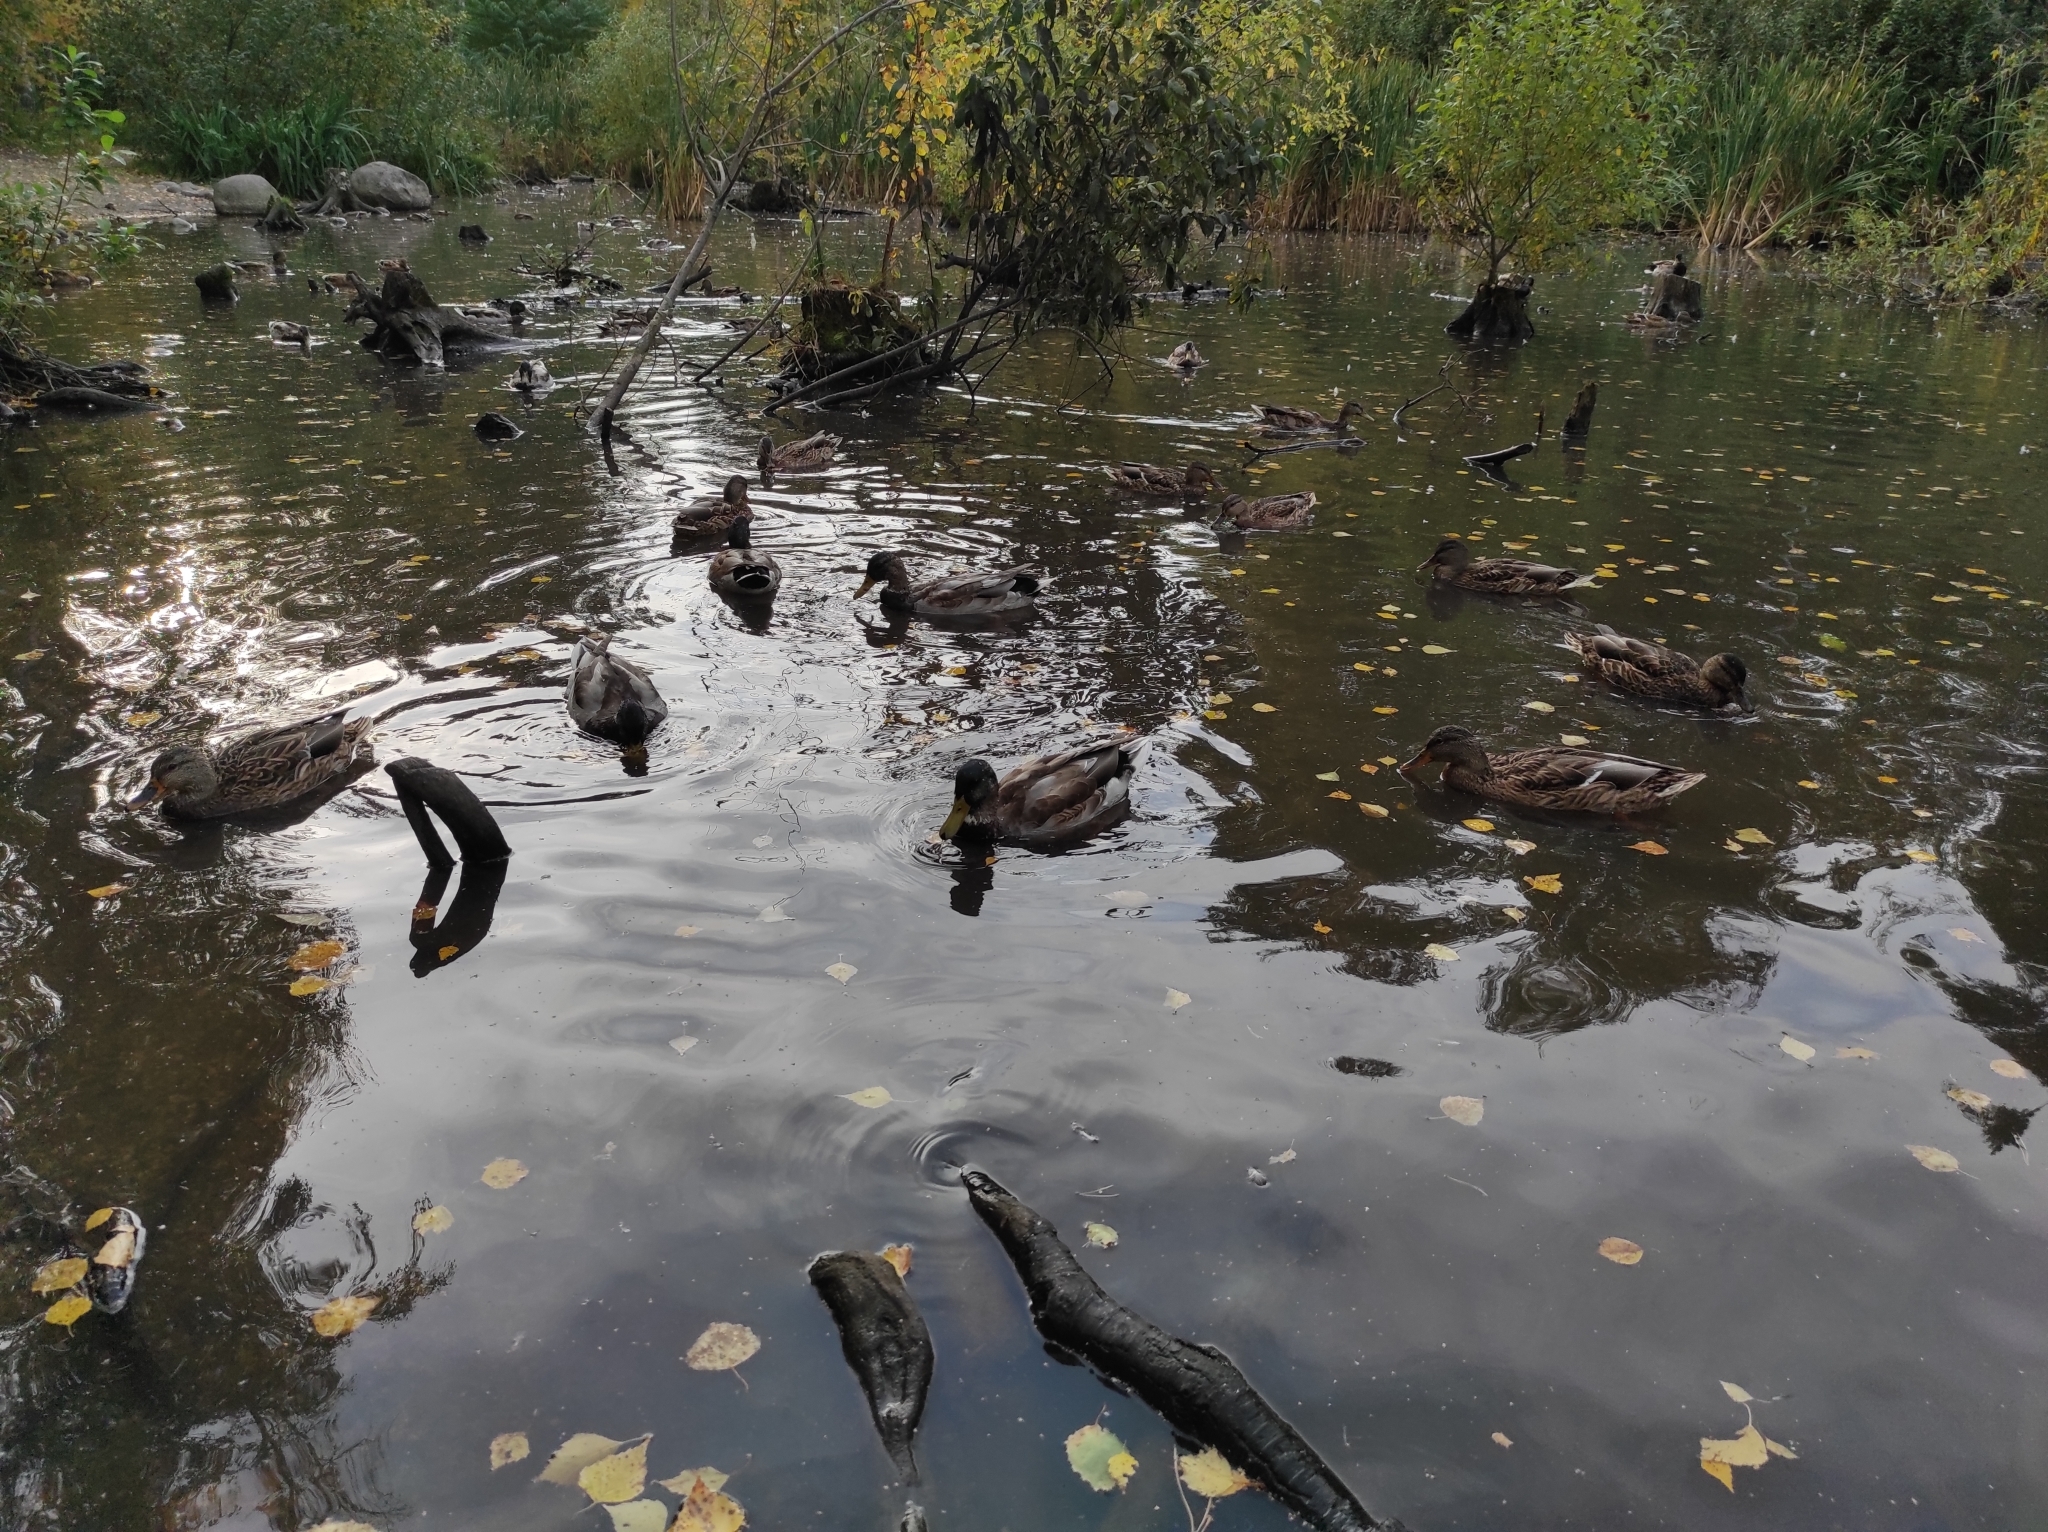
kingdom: Animalia
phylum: Chordata
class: Aves
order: Anseriformes
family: Anatidae
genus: Anas
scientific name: Anas platyrhynchos
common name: Mallard
